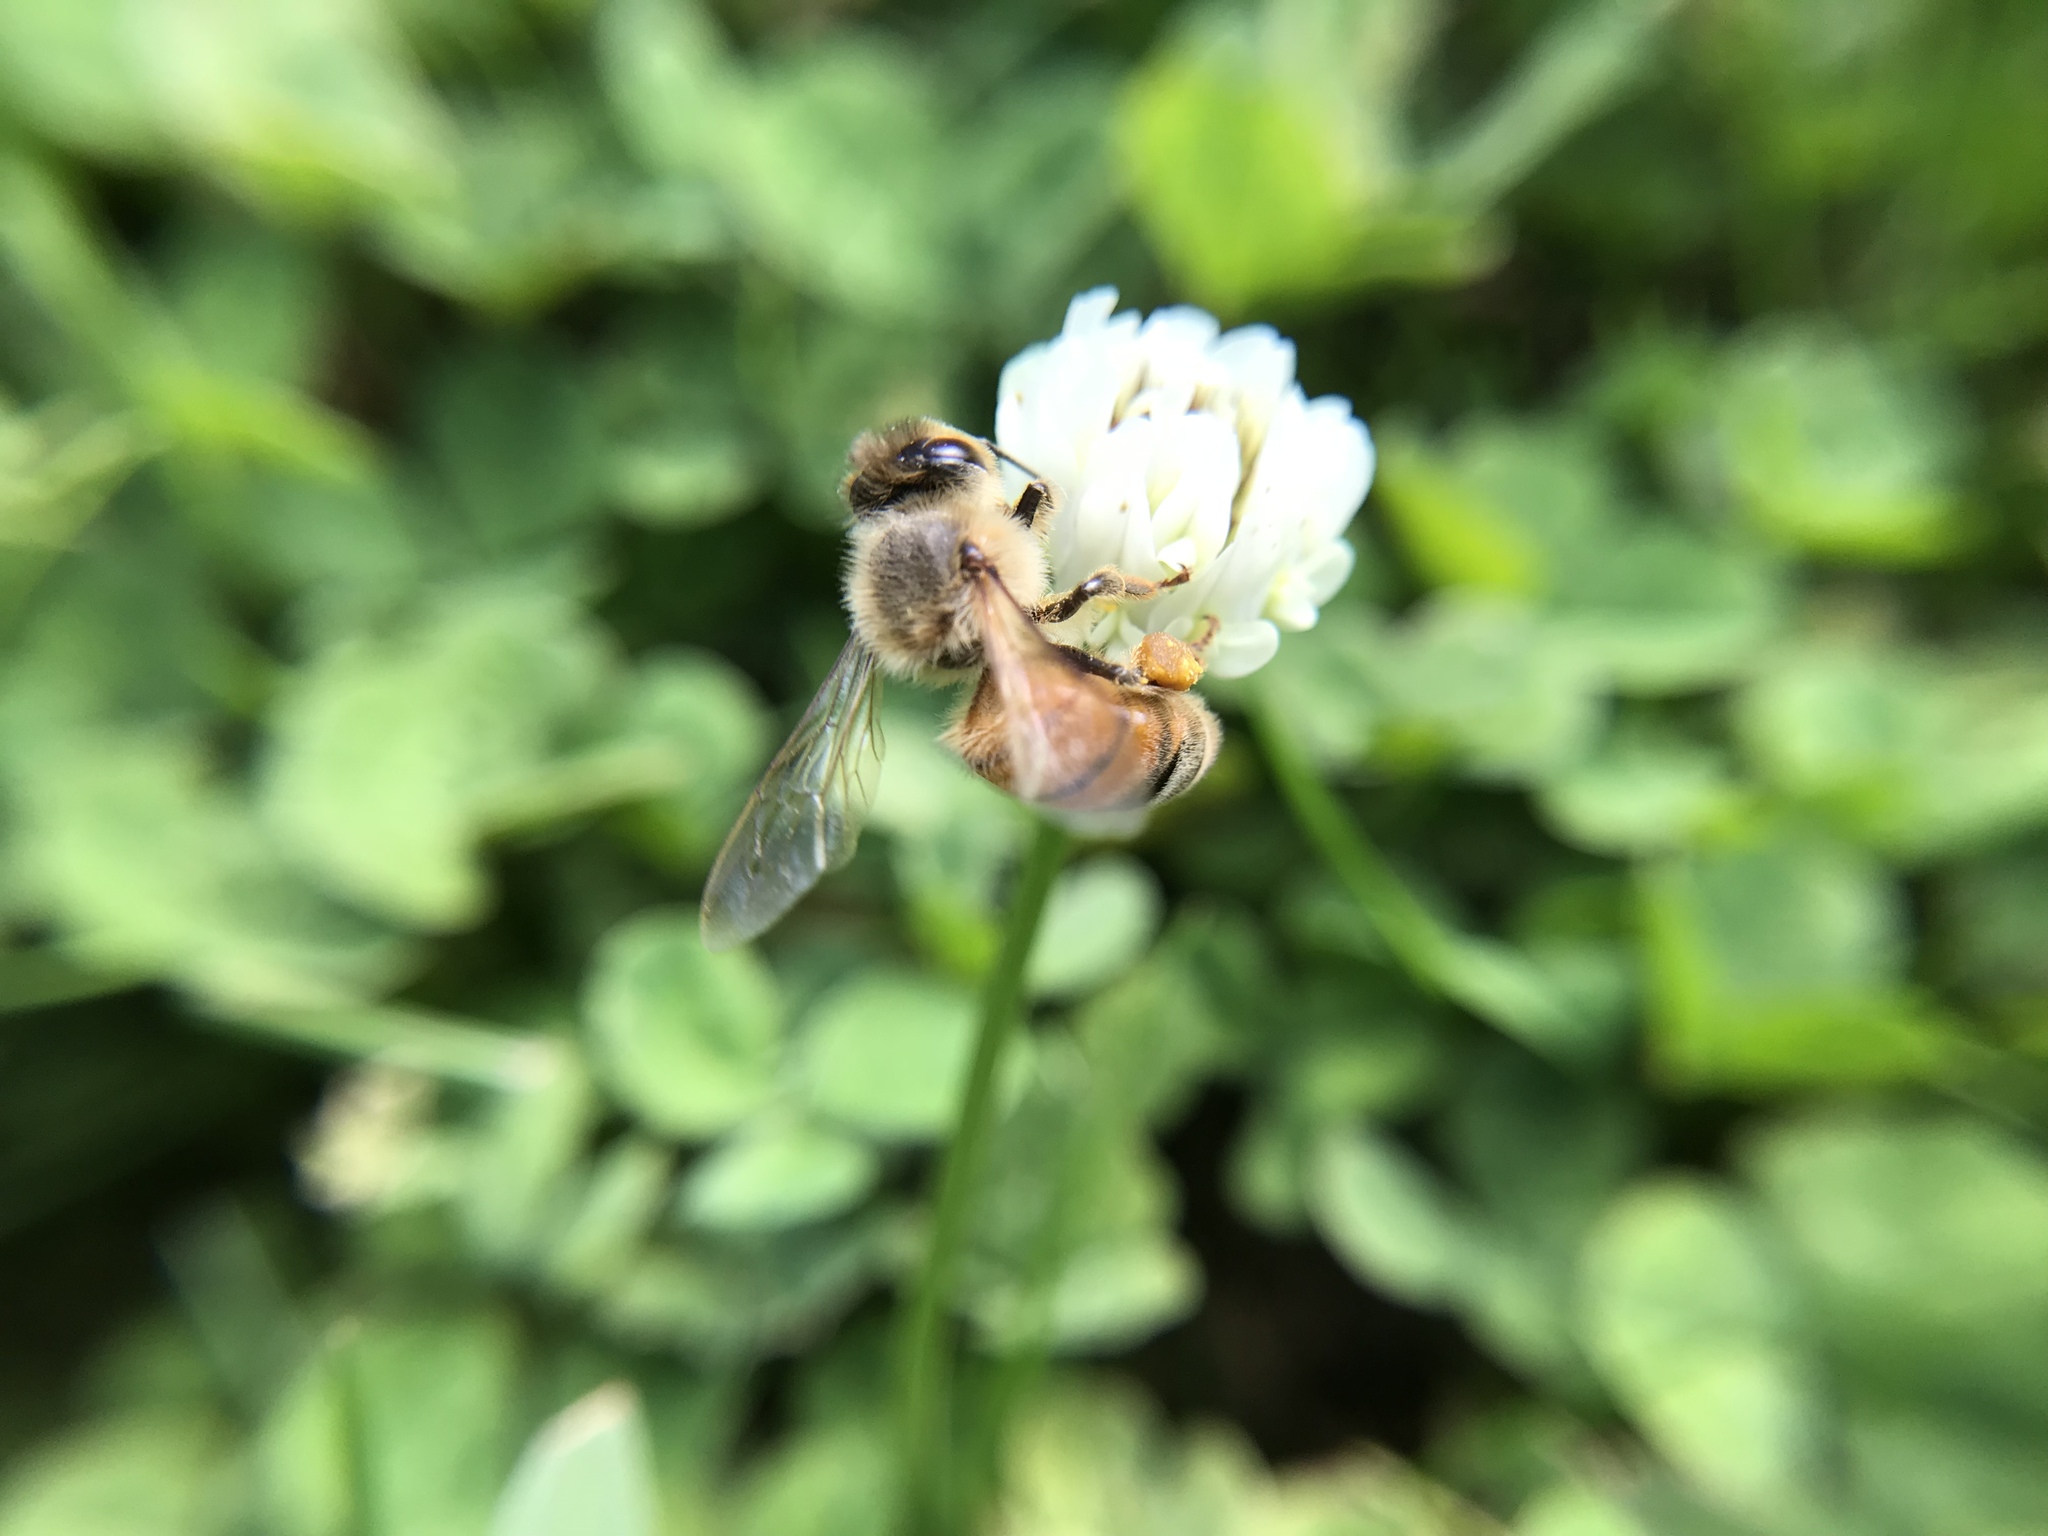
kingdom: Animalia
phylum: Arthropoda
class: Insecta
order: Hymenoptera
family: Apidae
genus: Apis
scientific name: Apis mellifera
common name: Honey bee
